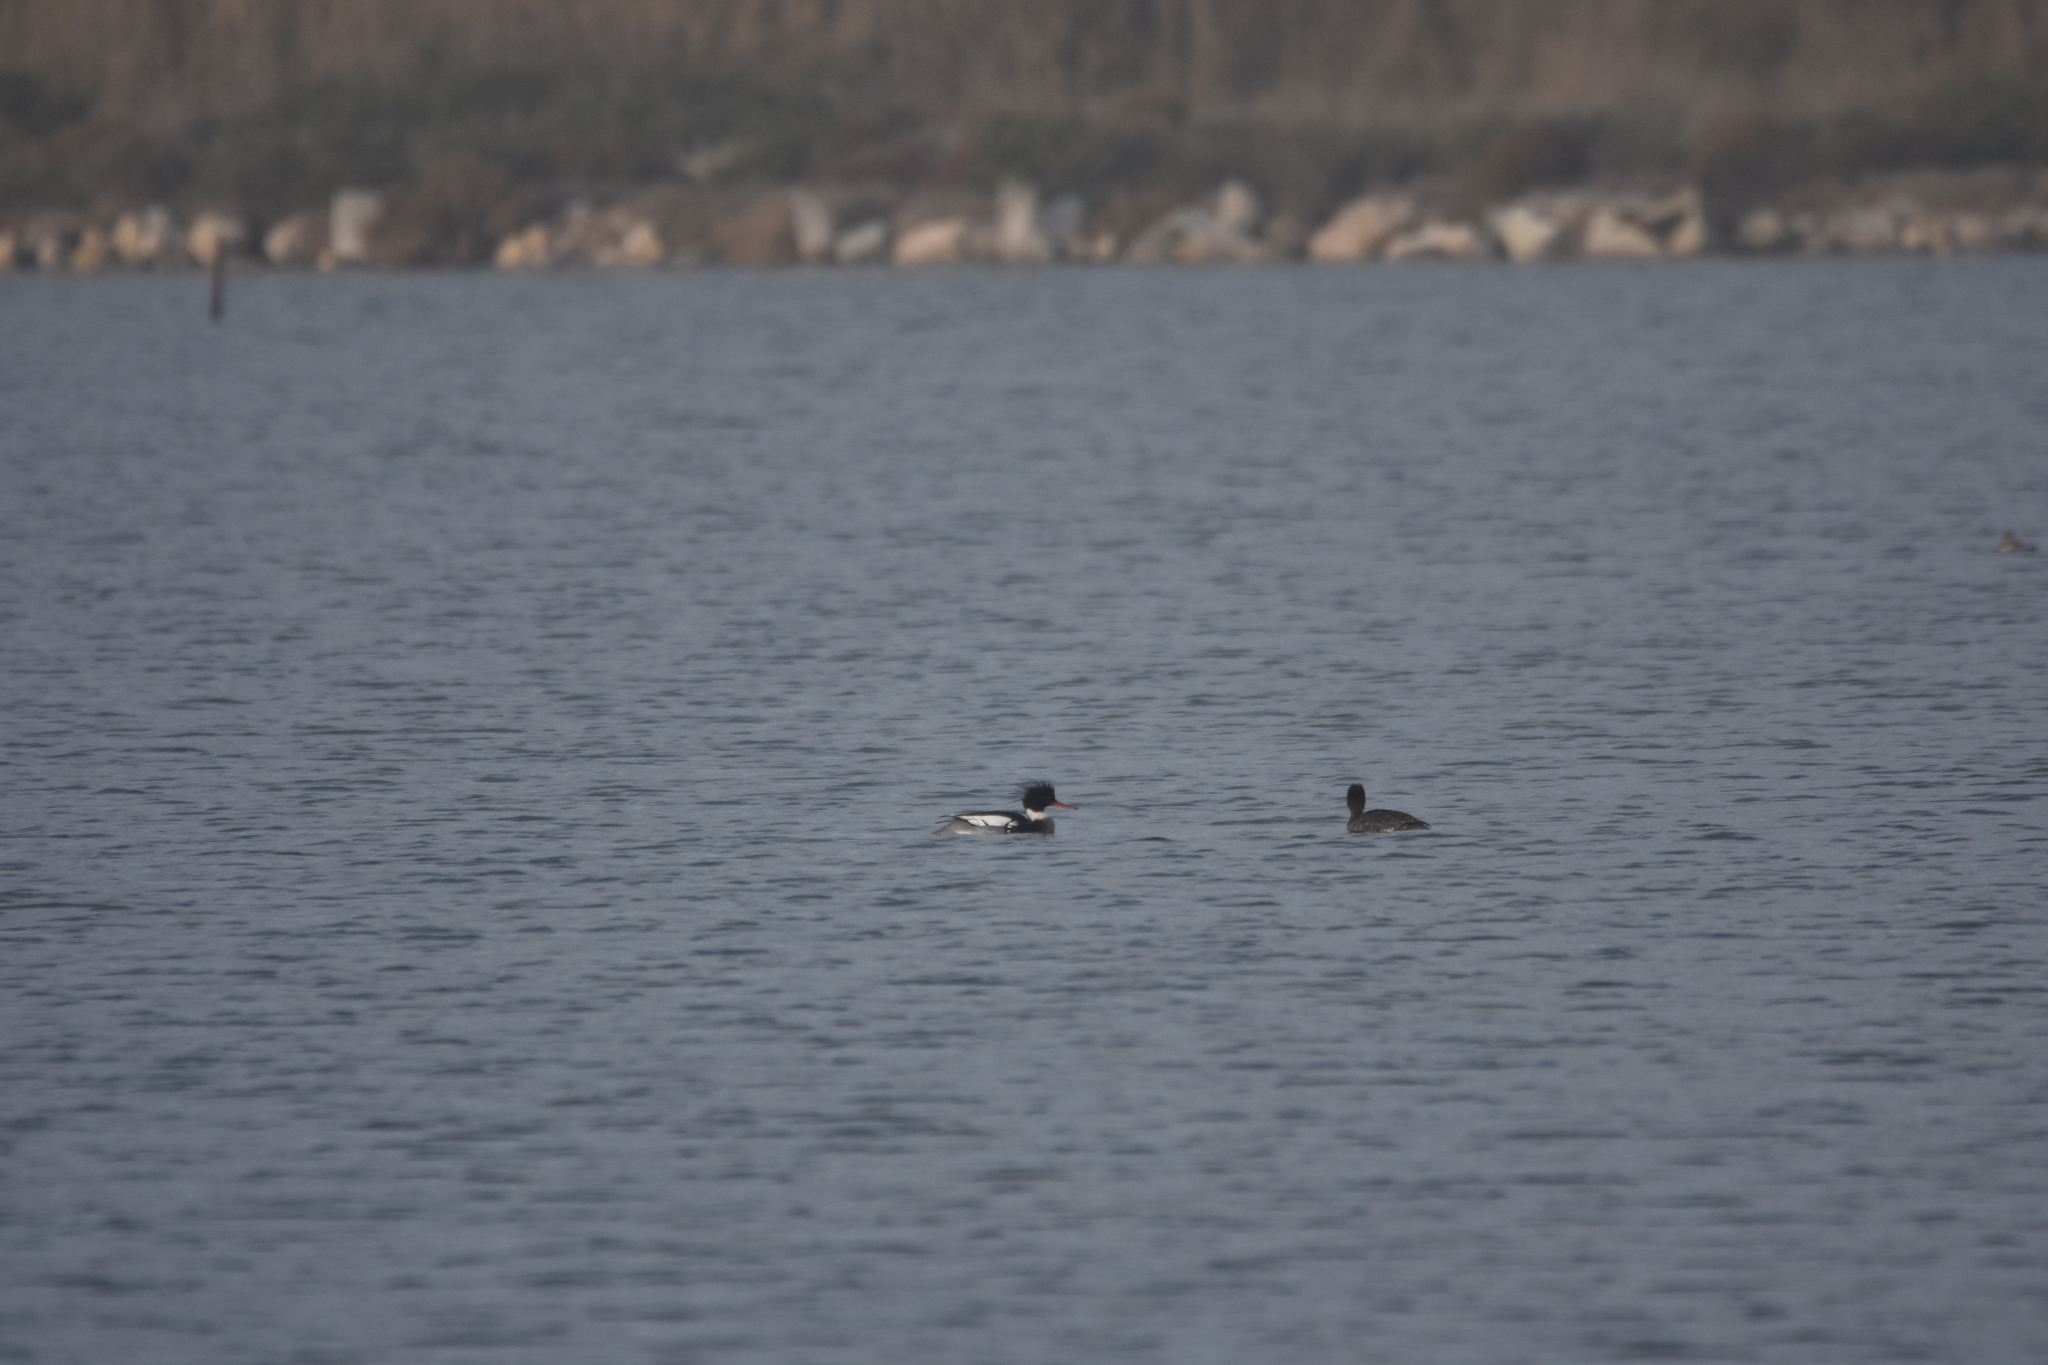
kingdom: Animalia
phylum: Chordata
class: Aves
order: Anseriformes
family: Anatidae
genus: Mergus
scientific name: Mergus serrator
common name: Red-breasted merganser
